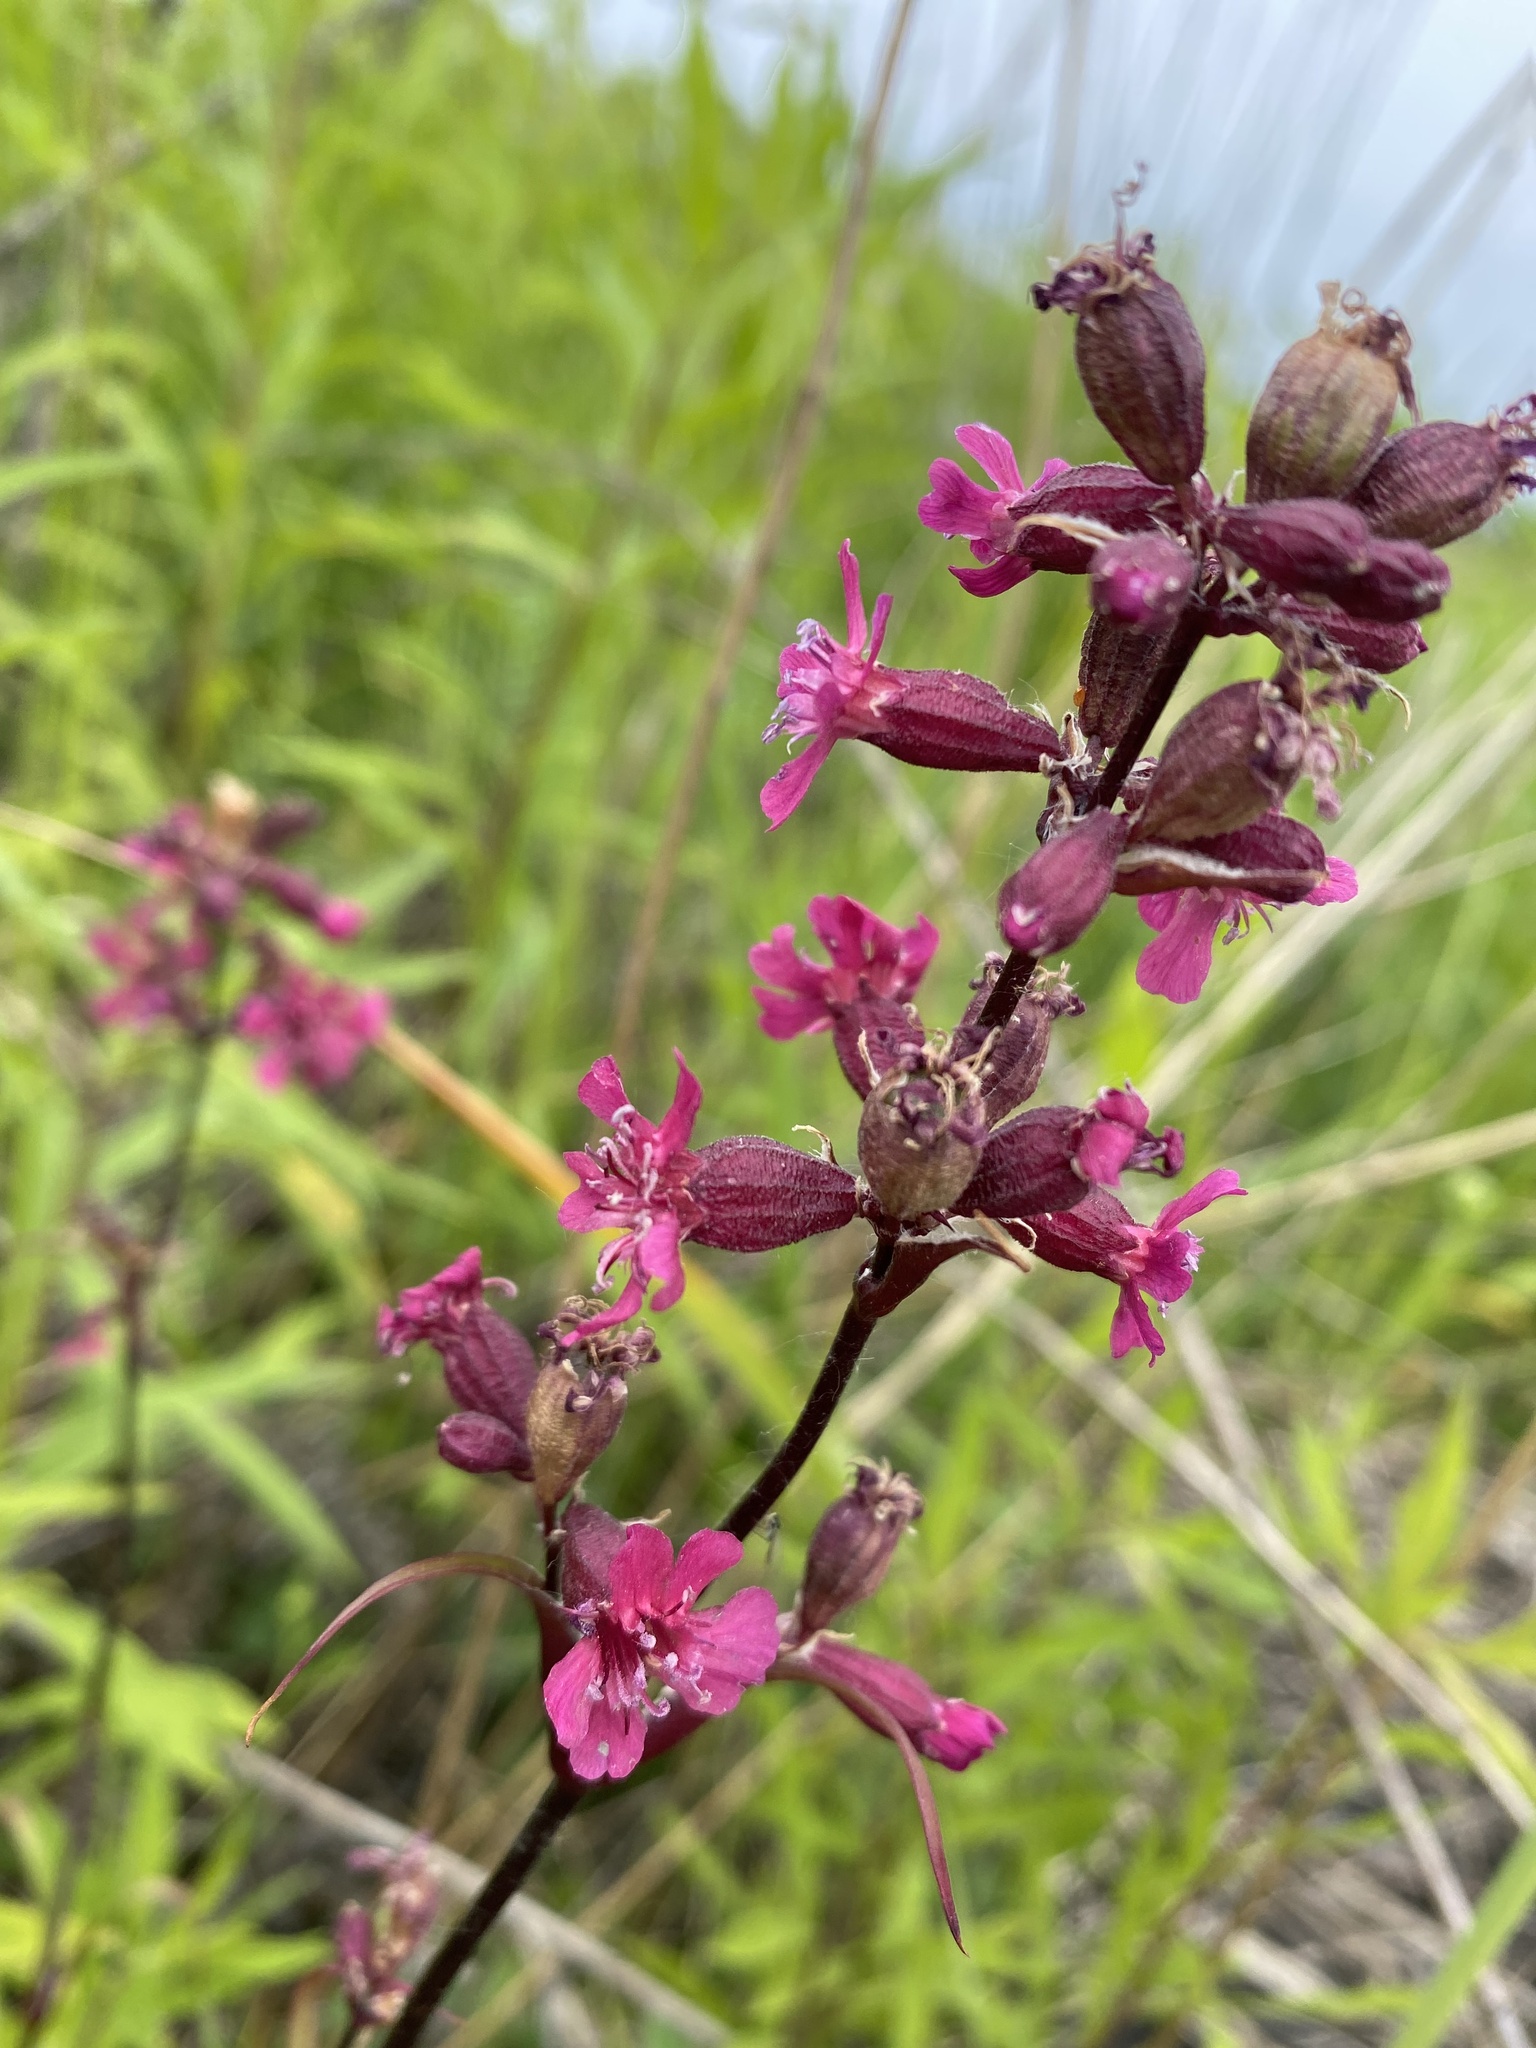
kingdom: Plantae
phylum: Tracheophyta
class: Magnoliopsida
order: Caryophyllales
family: Caryophyllaceae
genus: Viscaria
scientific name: Viscaria vulgaris
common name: Clammy campion
